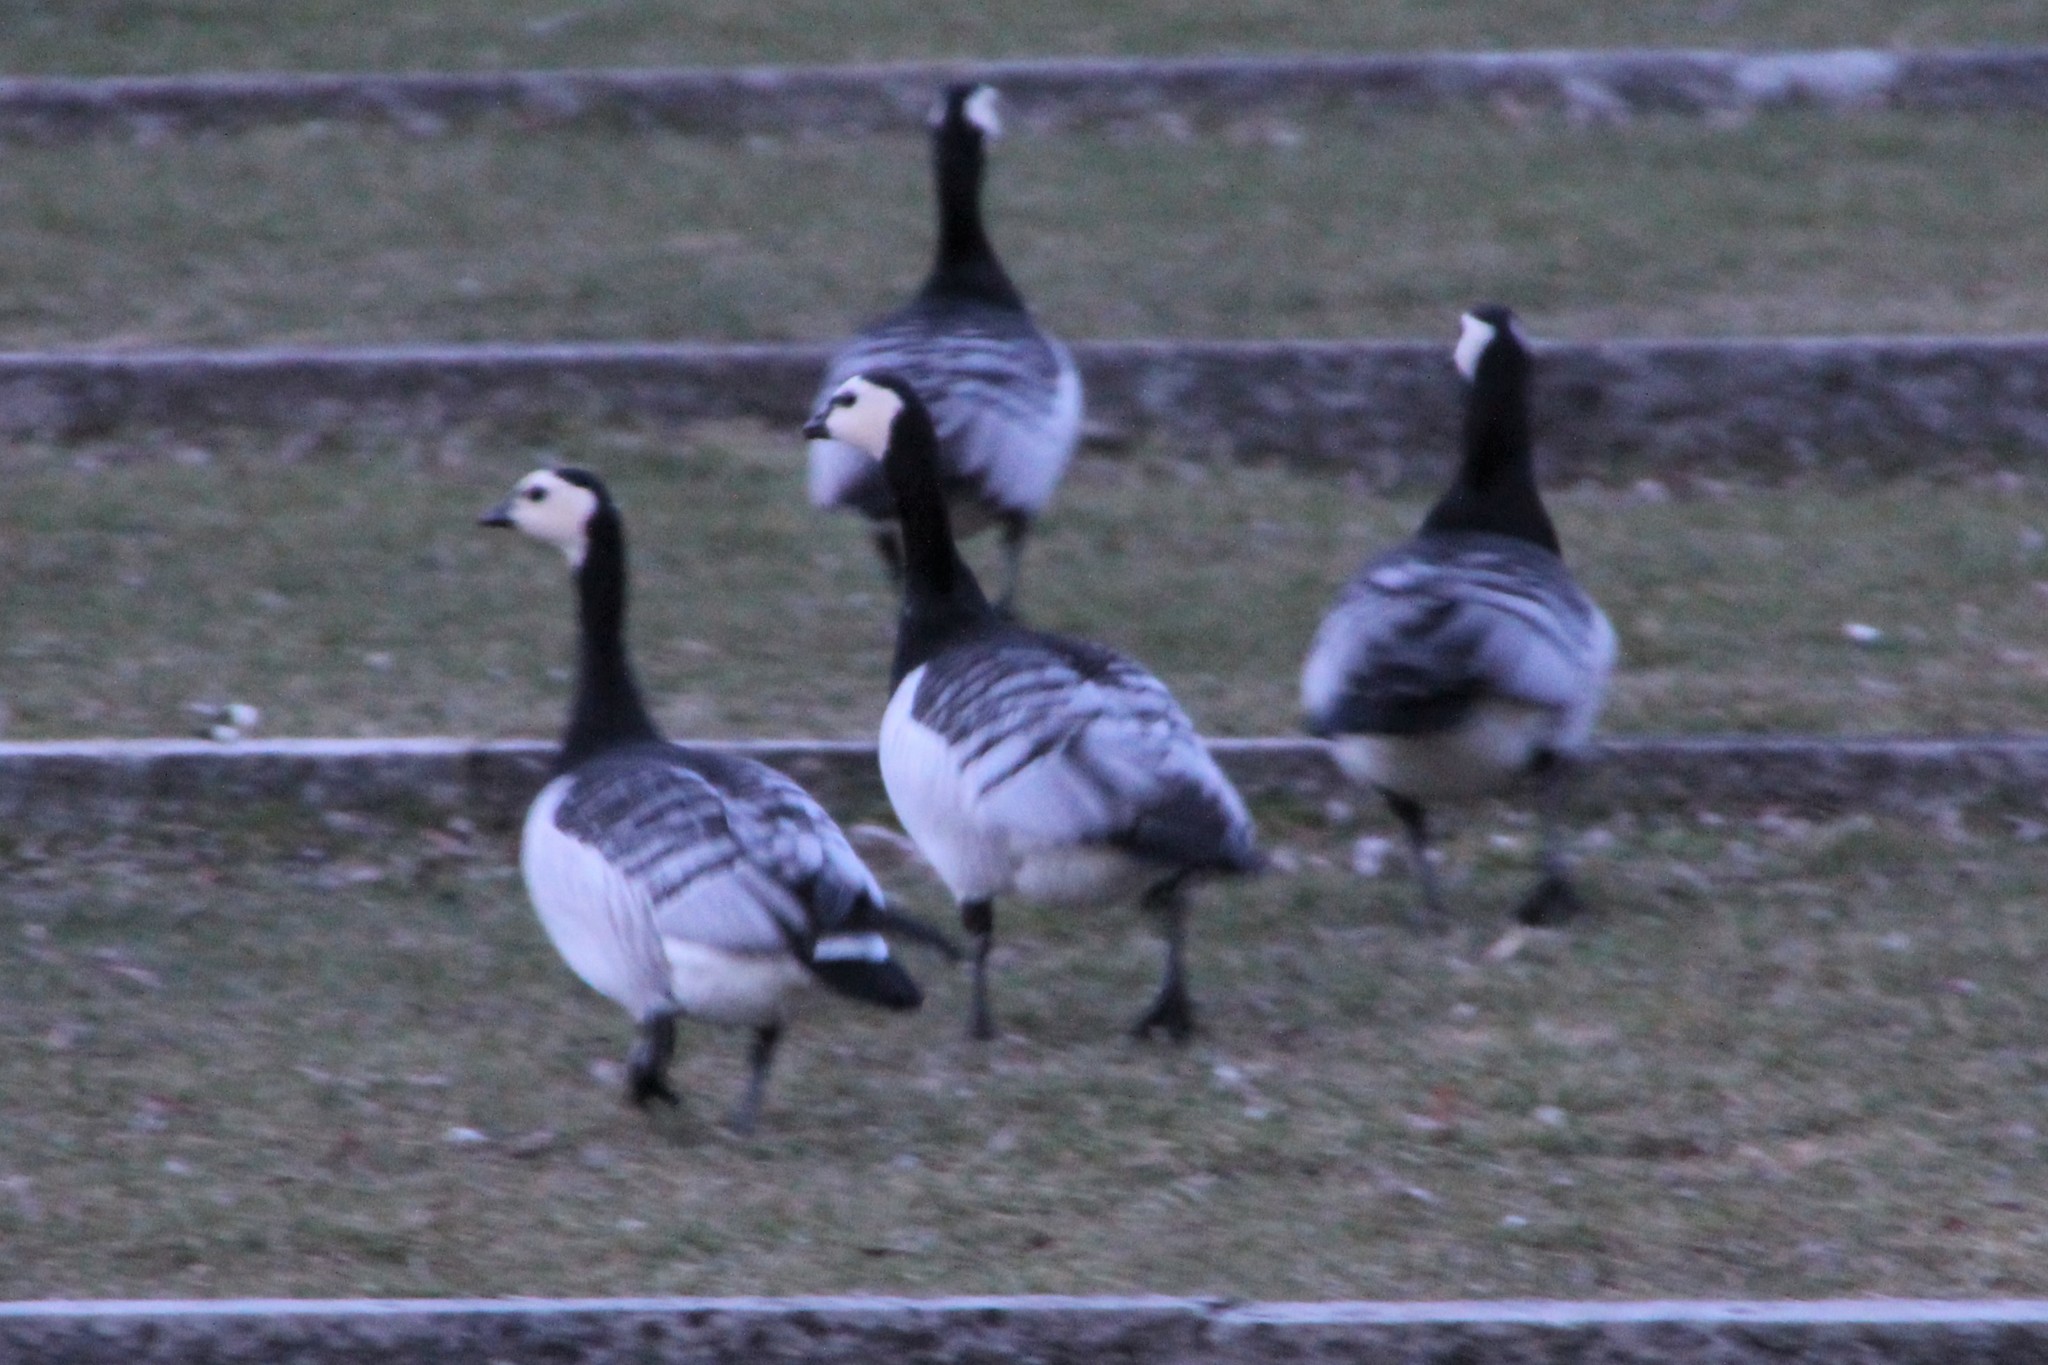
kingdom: Animalia
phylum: Chordata
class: Aves
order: Anseriformes
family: Anatidae
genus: Branta
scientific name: Branta leucopsis
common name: Barnacle goose
